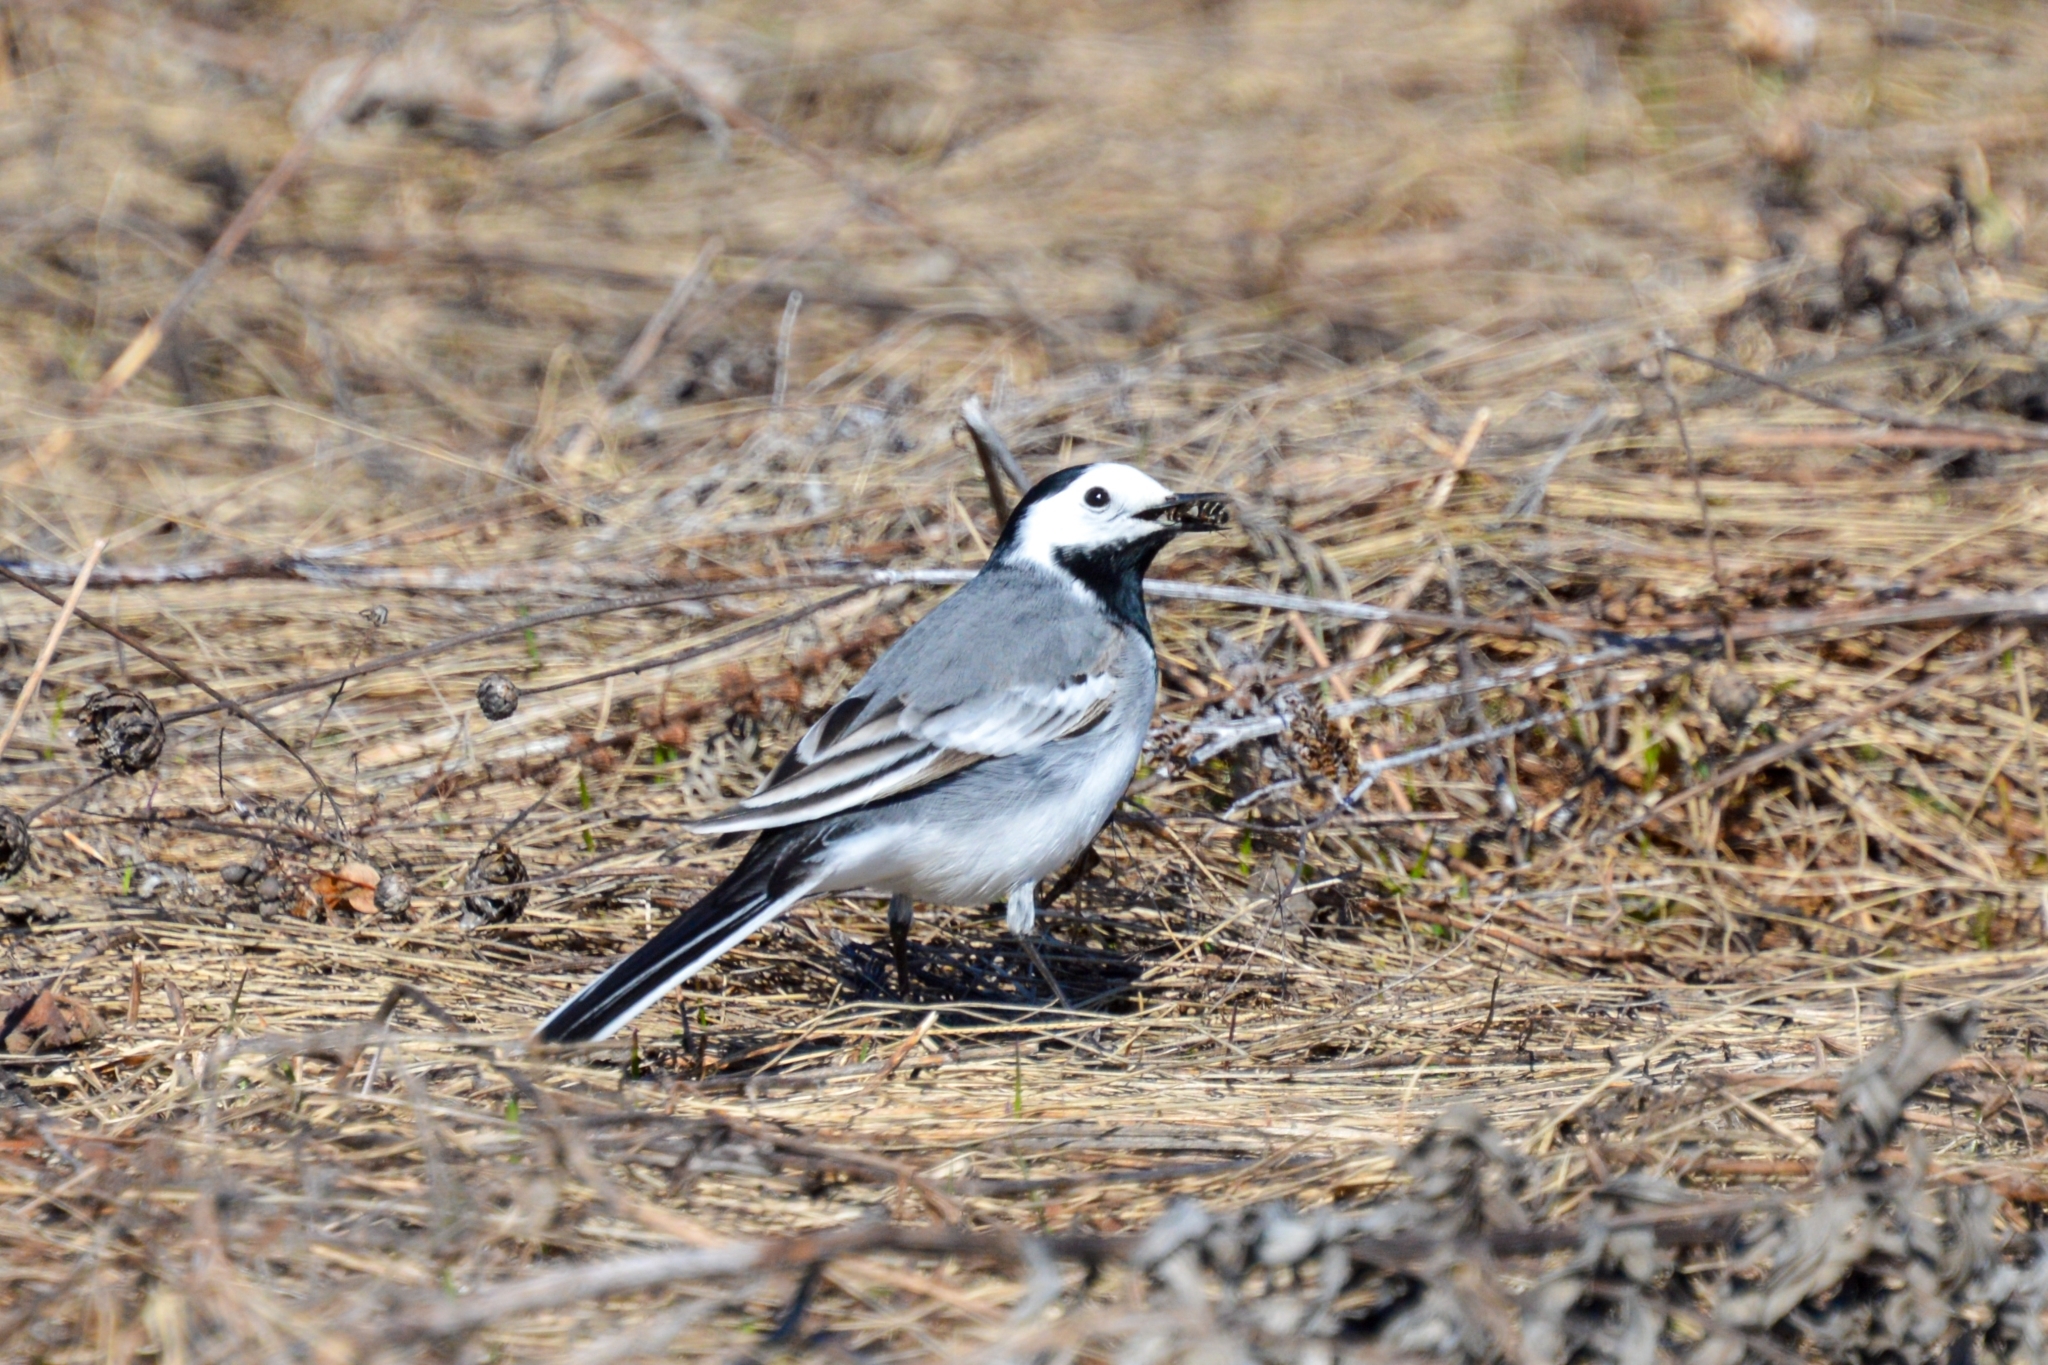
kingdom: Animalia
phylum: Chordata
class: Aves
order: Passeriformes
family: Motacillidae
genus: Motacilla
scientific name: Motacilla alba
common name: White wagtail
